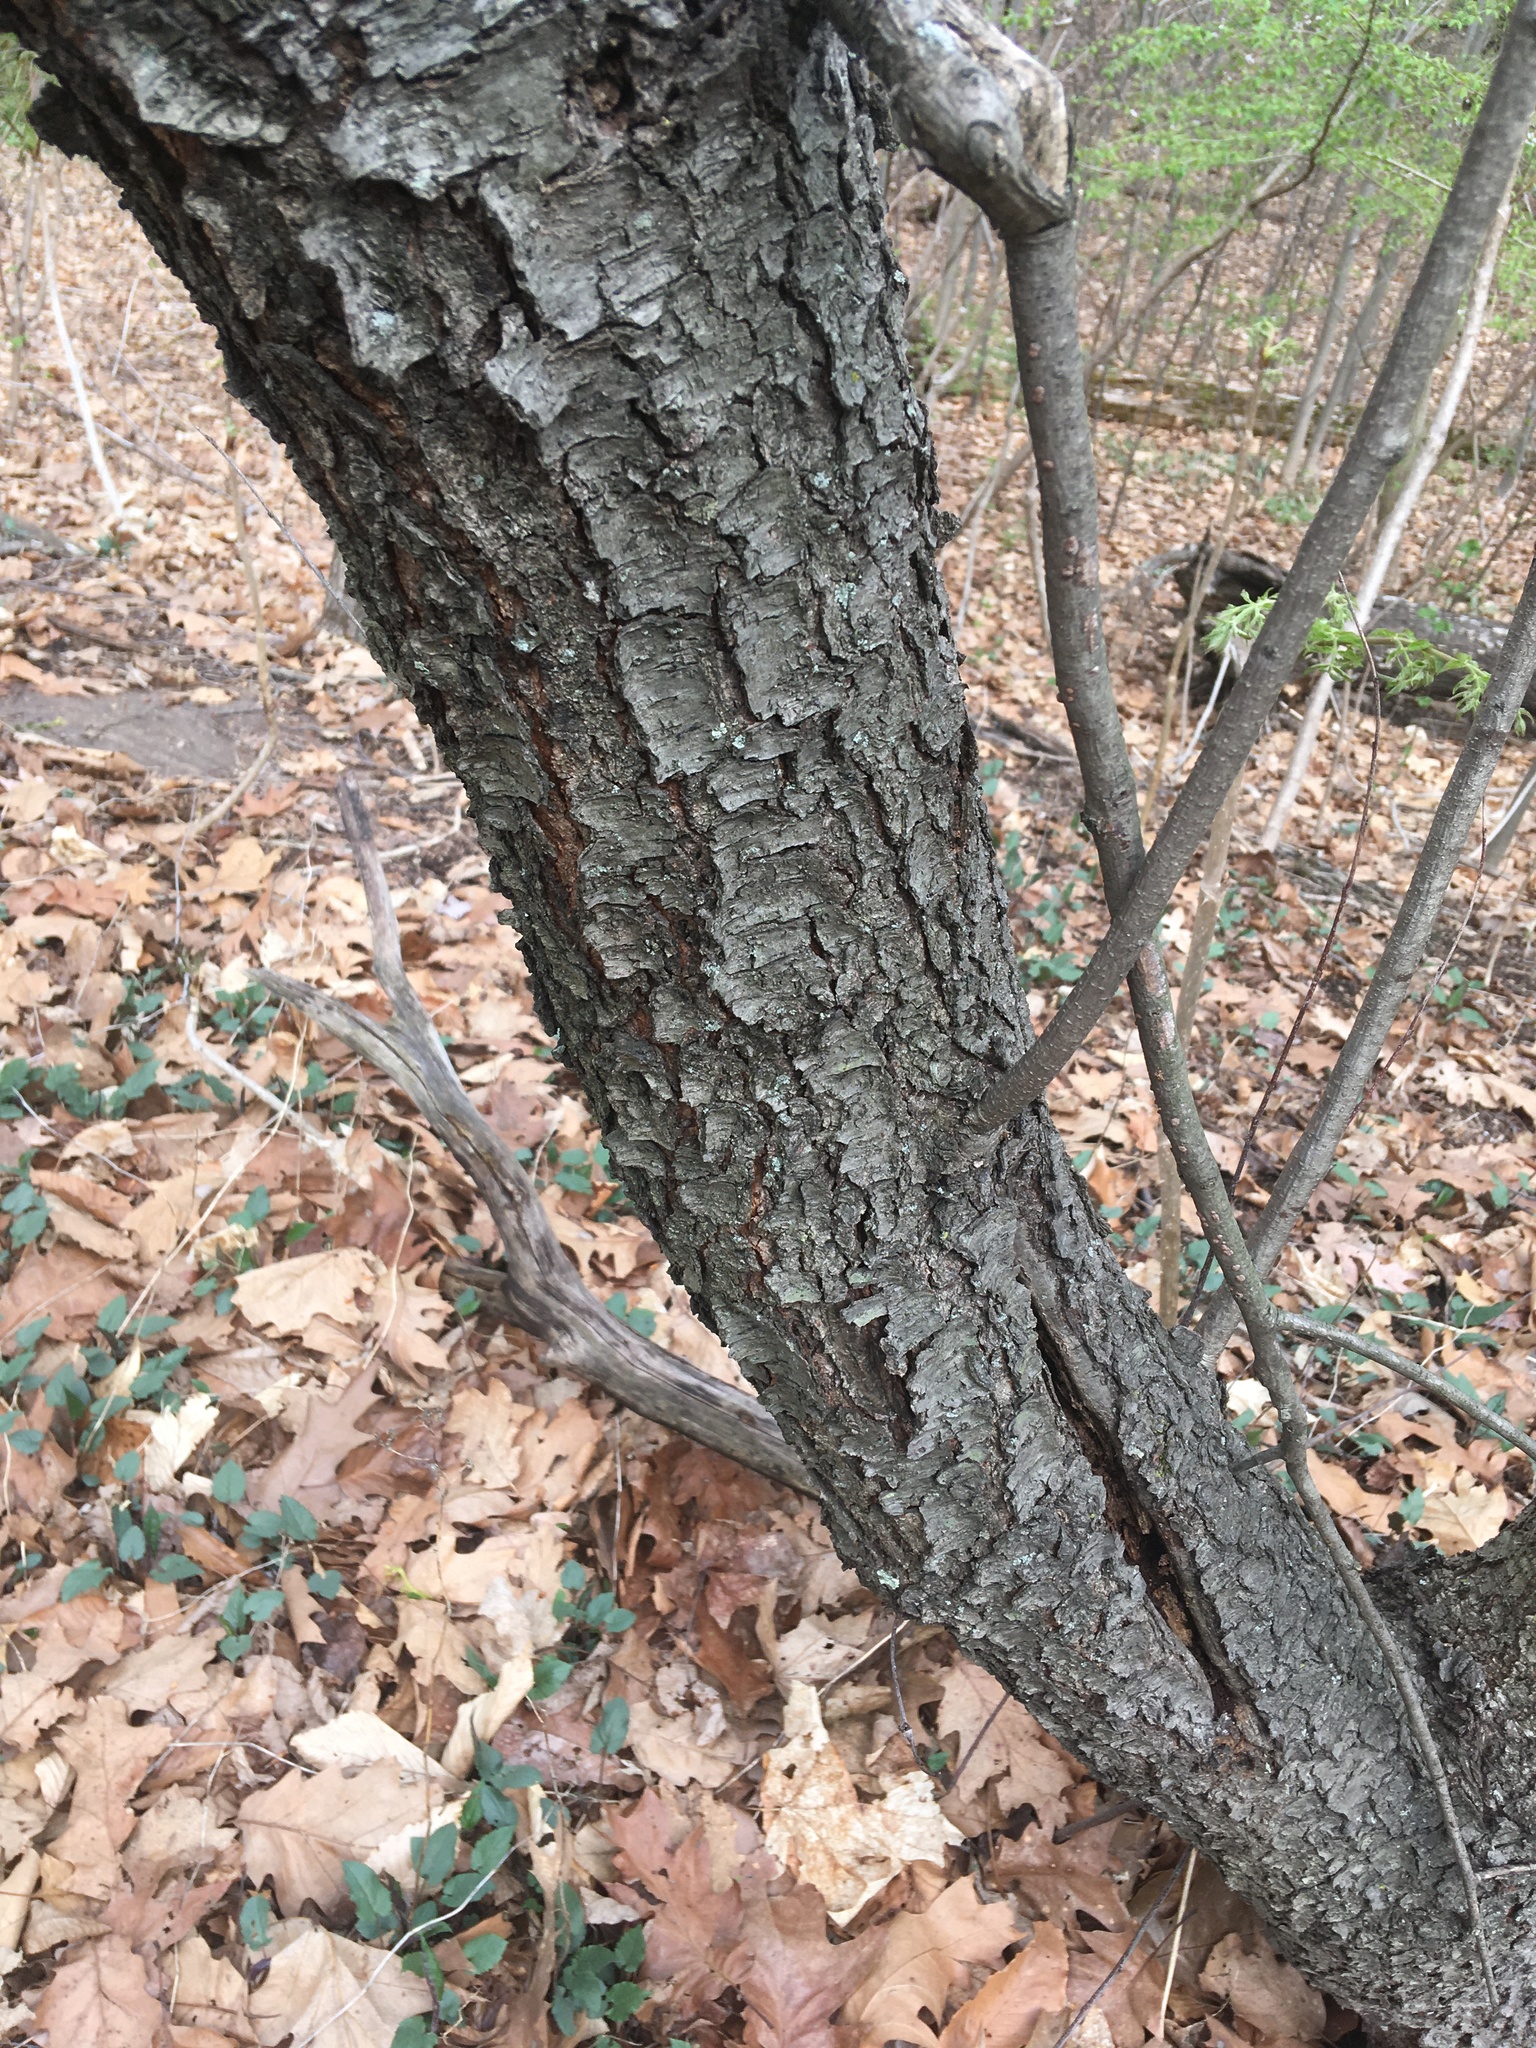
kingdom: Plantae
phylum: Tracheophyta
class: Magnoliopsida
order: Rosales
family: Rosaceae
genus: Prunus
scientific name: Prunus serotina
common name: Black cherry
